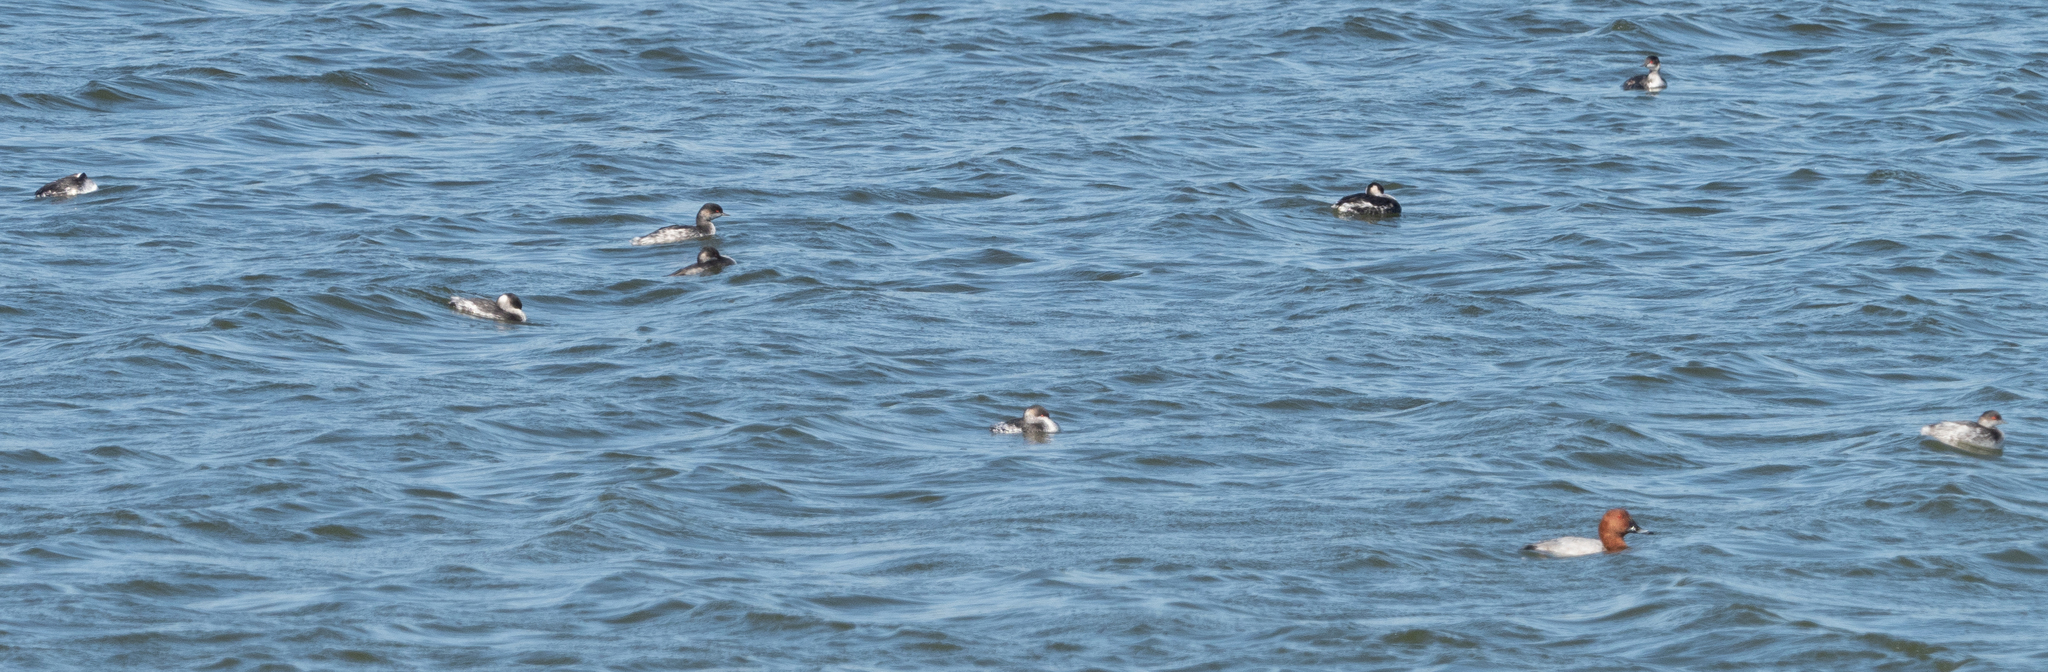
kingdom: Animalia
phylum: Chordata
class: Aves
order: Anseriformes
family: Anatidae
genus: Aythya
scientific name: Aythya ferina
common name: Common pochard
